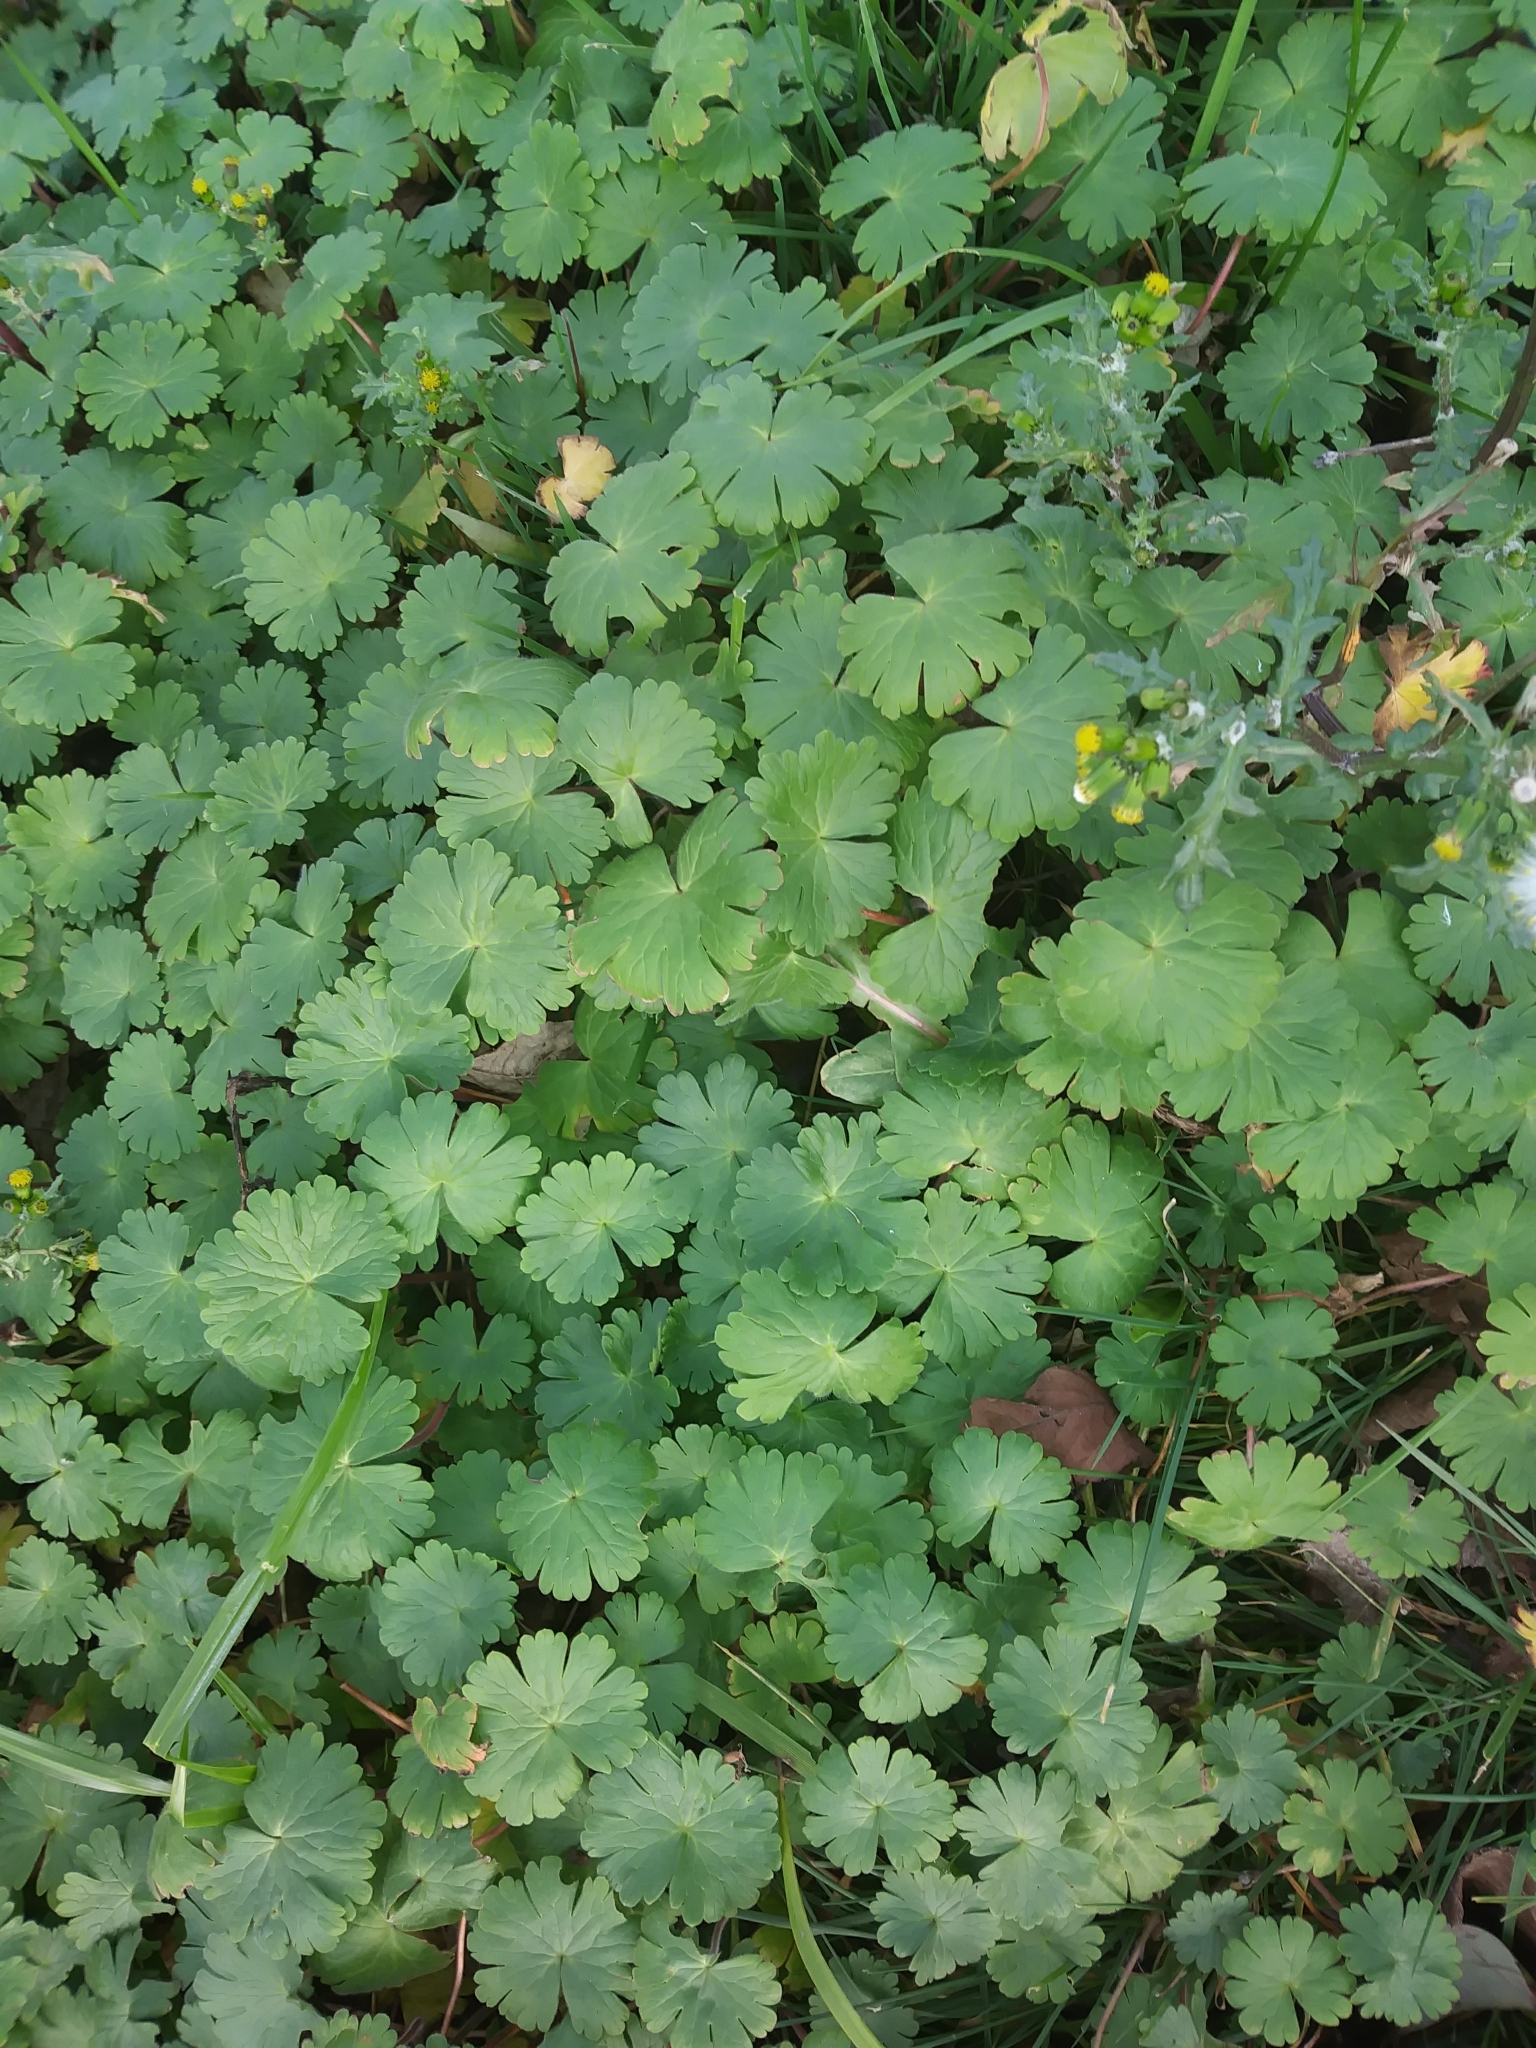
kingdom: Plantae
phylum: Tracheophyta
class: Magnoliopsida
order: Geraniales
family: Geraniaceae
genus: Geranium
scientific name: Geranium molle
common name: Dove's-foot crane's-bill
